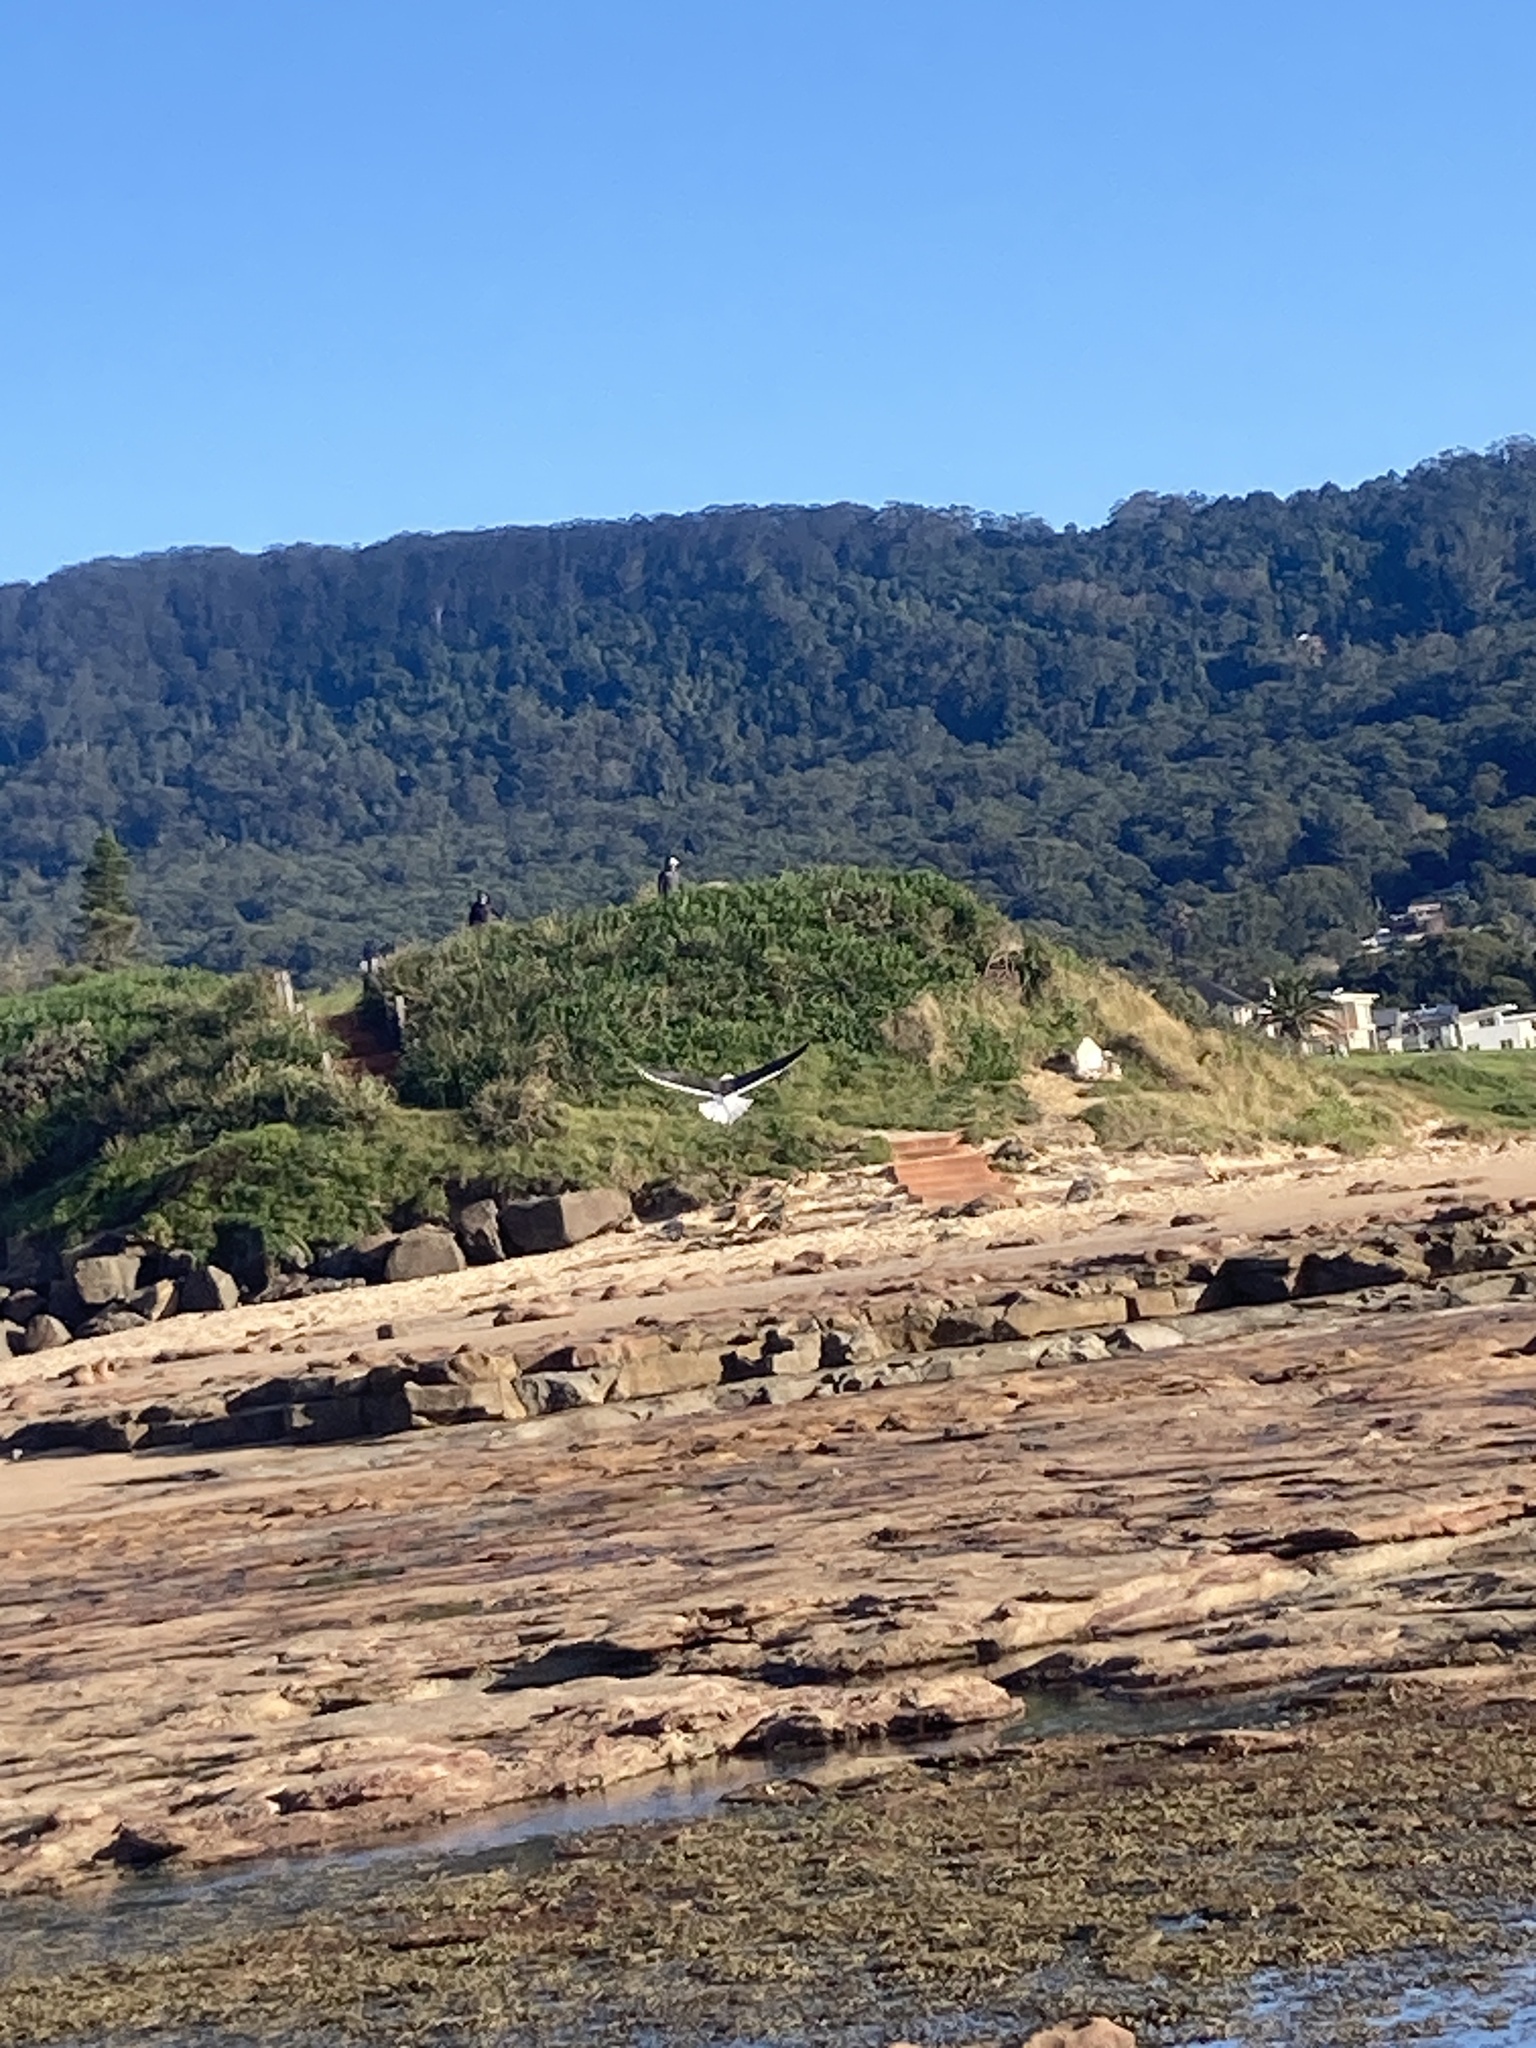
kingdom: Animalia
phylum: Chordata
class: Aves
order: Charadriiformes
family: Laridae
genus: Larus
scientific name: Larus dominicanus
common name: Kelp gull
